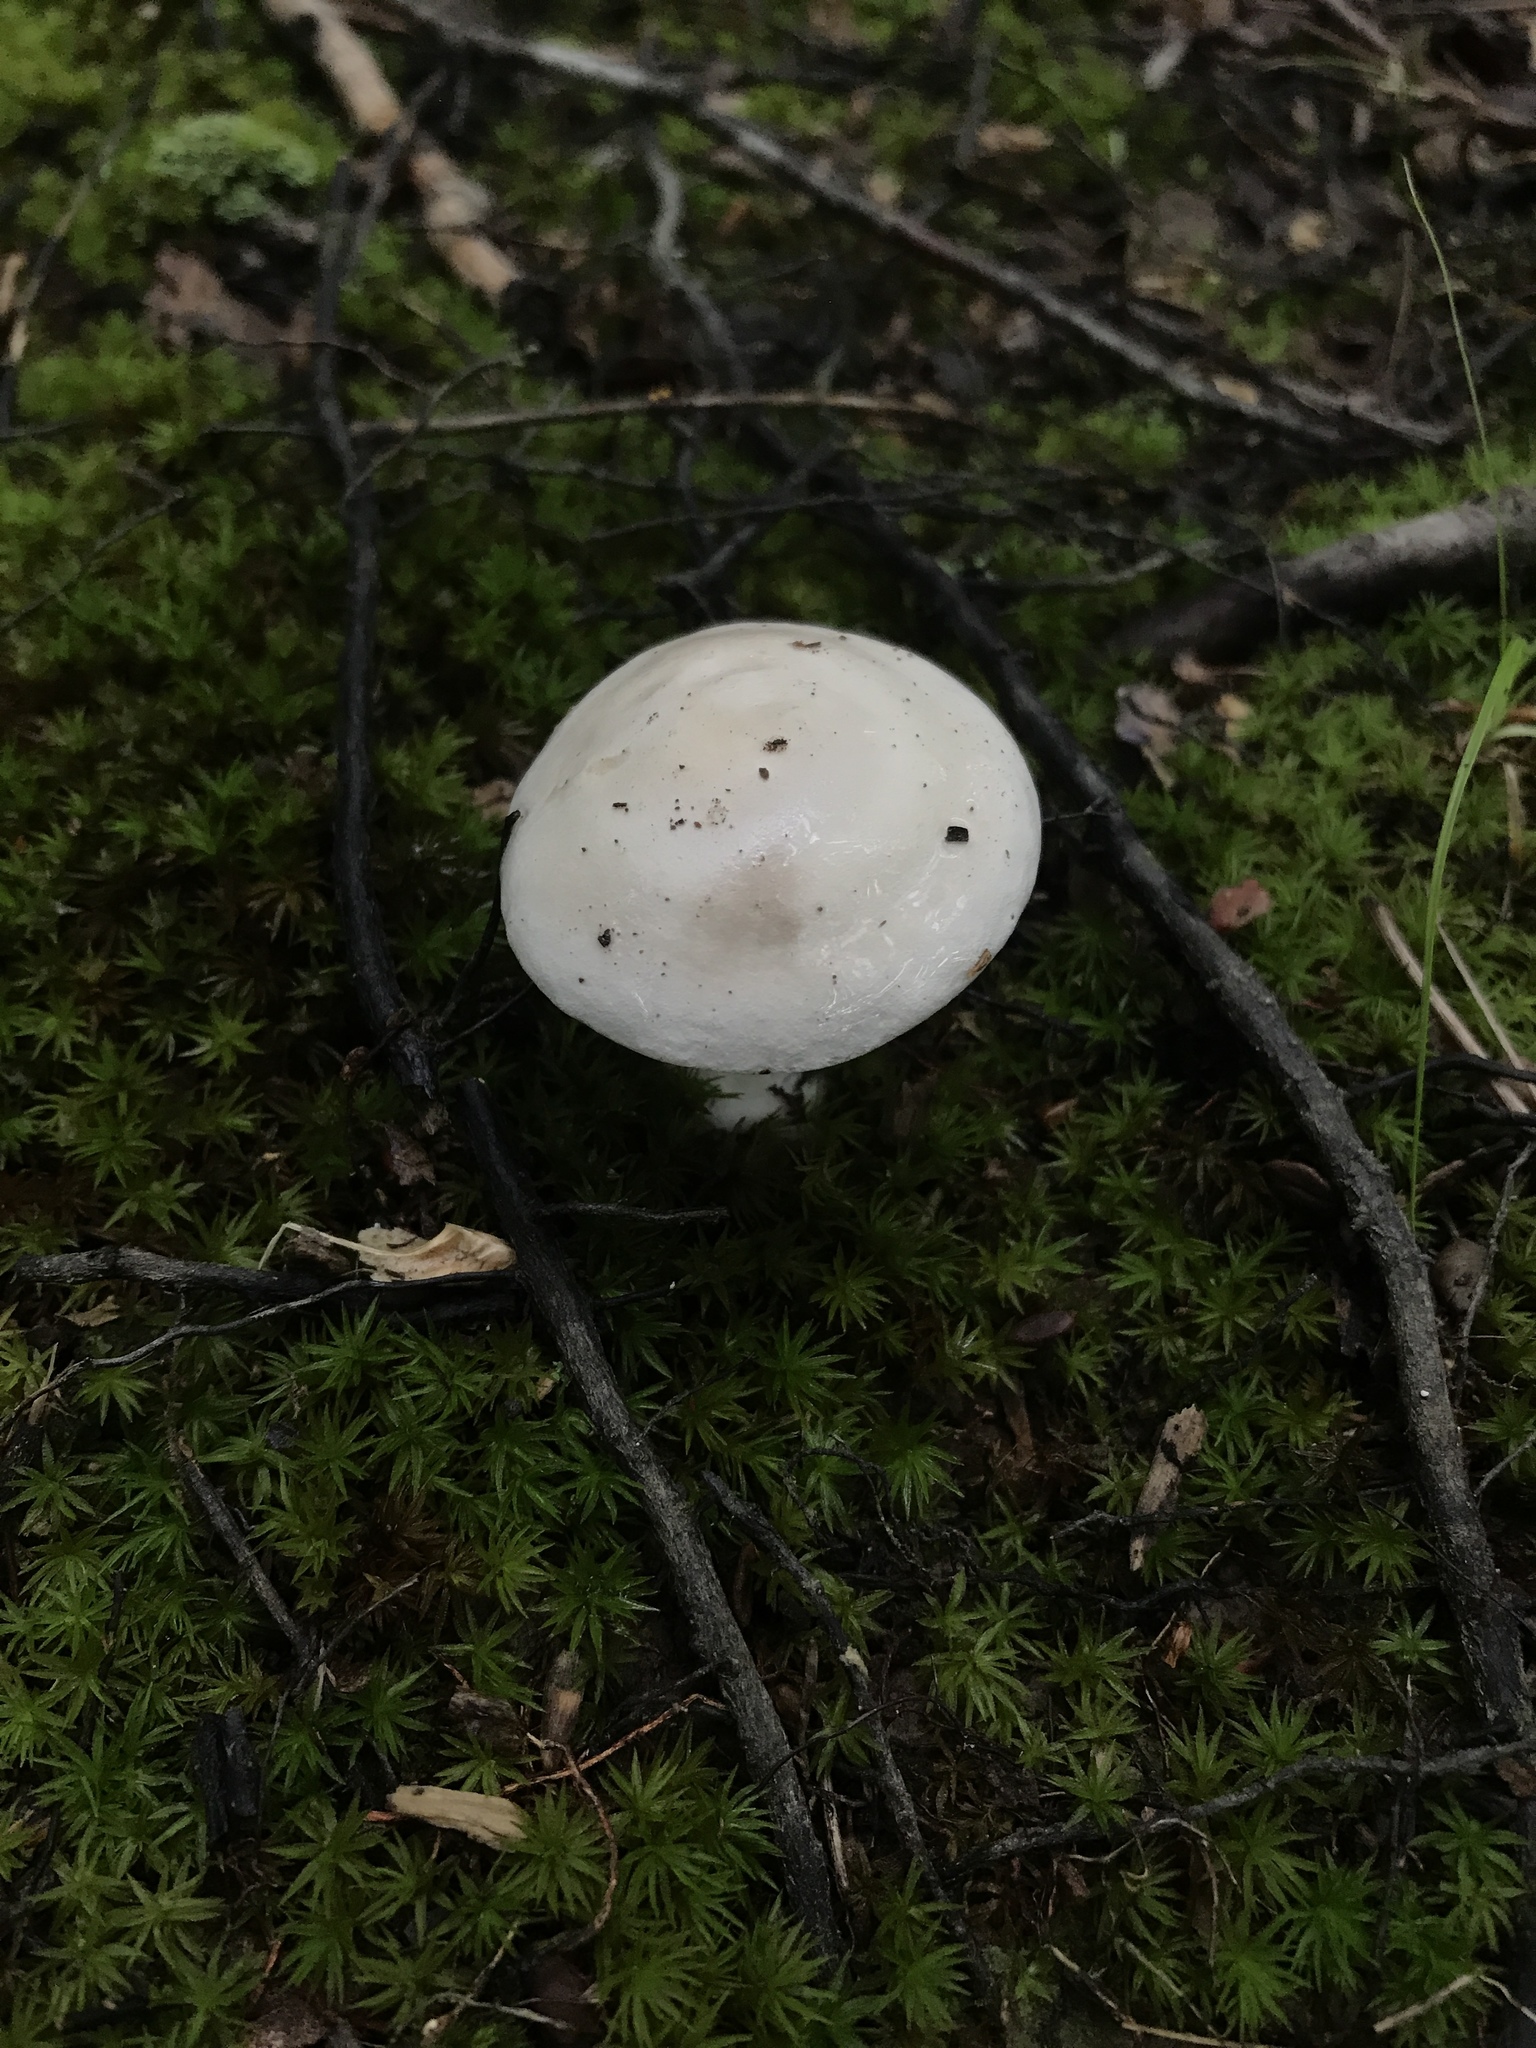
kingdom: Fungi
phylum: Basidiomycota
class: Agaricomycetes
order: Agaricales
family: Entolomataceae
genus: Clitopilus
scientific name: Clitopilus prunulus
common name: The miller
